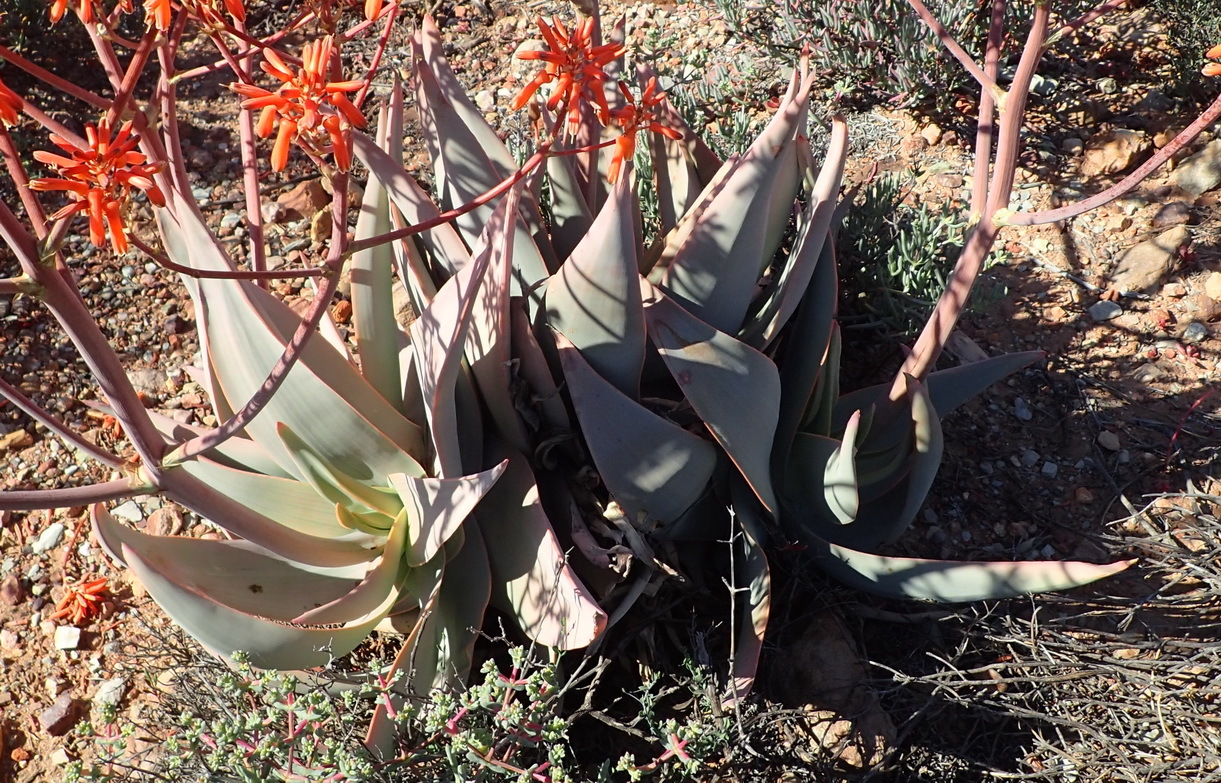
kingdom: Plantae
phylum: Tracheophyta
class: Liliopsida
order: Asparagales
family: Asphodelaceae
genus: Aloe
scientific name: Aloe striata
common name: Coral aloe
